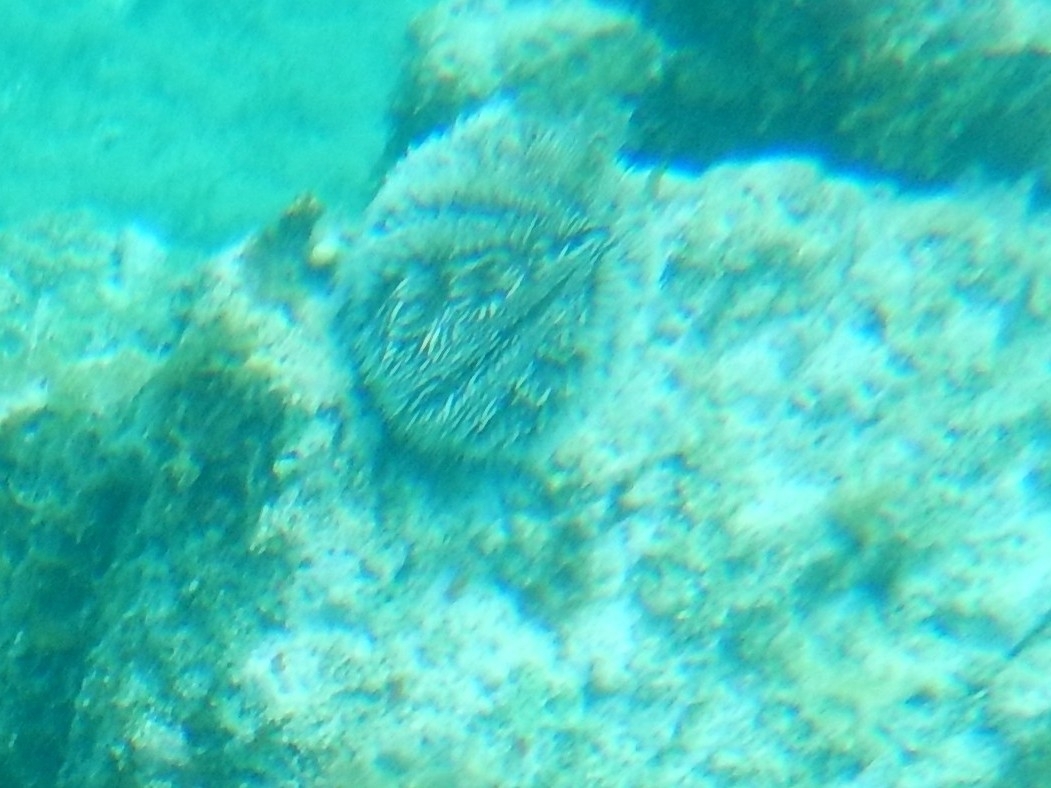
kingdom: Animalia
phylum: Echinodermata
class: Echinoidea
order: Camarodonta
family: Toxopneustidae
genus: Tripneustes
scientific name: Tripneustes ventricosus
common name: West indian sea egg
